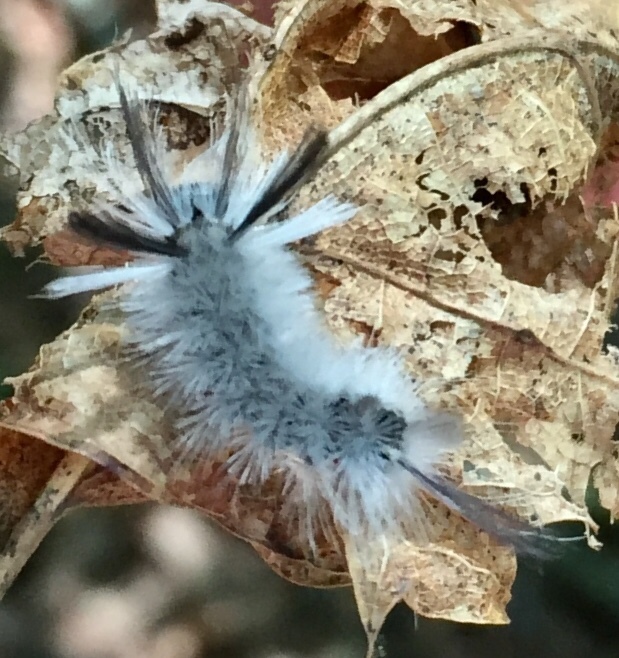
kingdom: Animalia
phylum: Arthropoda
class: Insecta
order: Lepidoptera
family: Erebidae
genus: Halysidota
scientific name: Halysidota tessellaris
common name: Banded tussock moth
